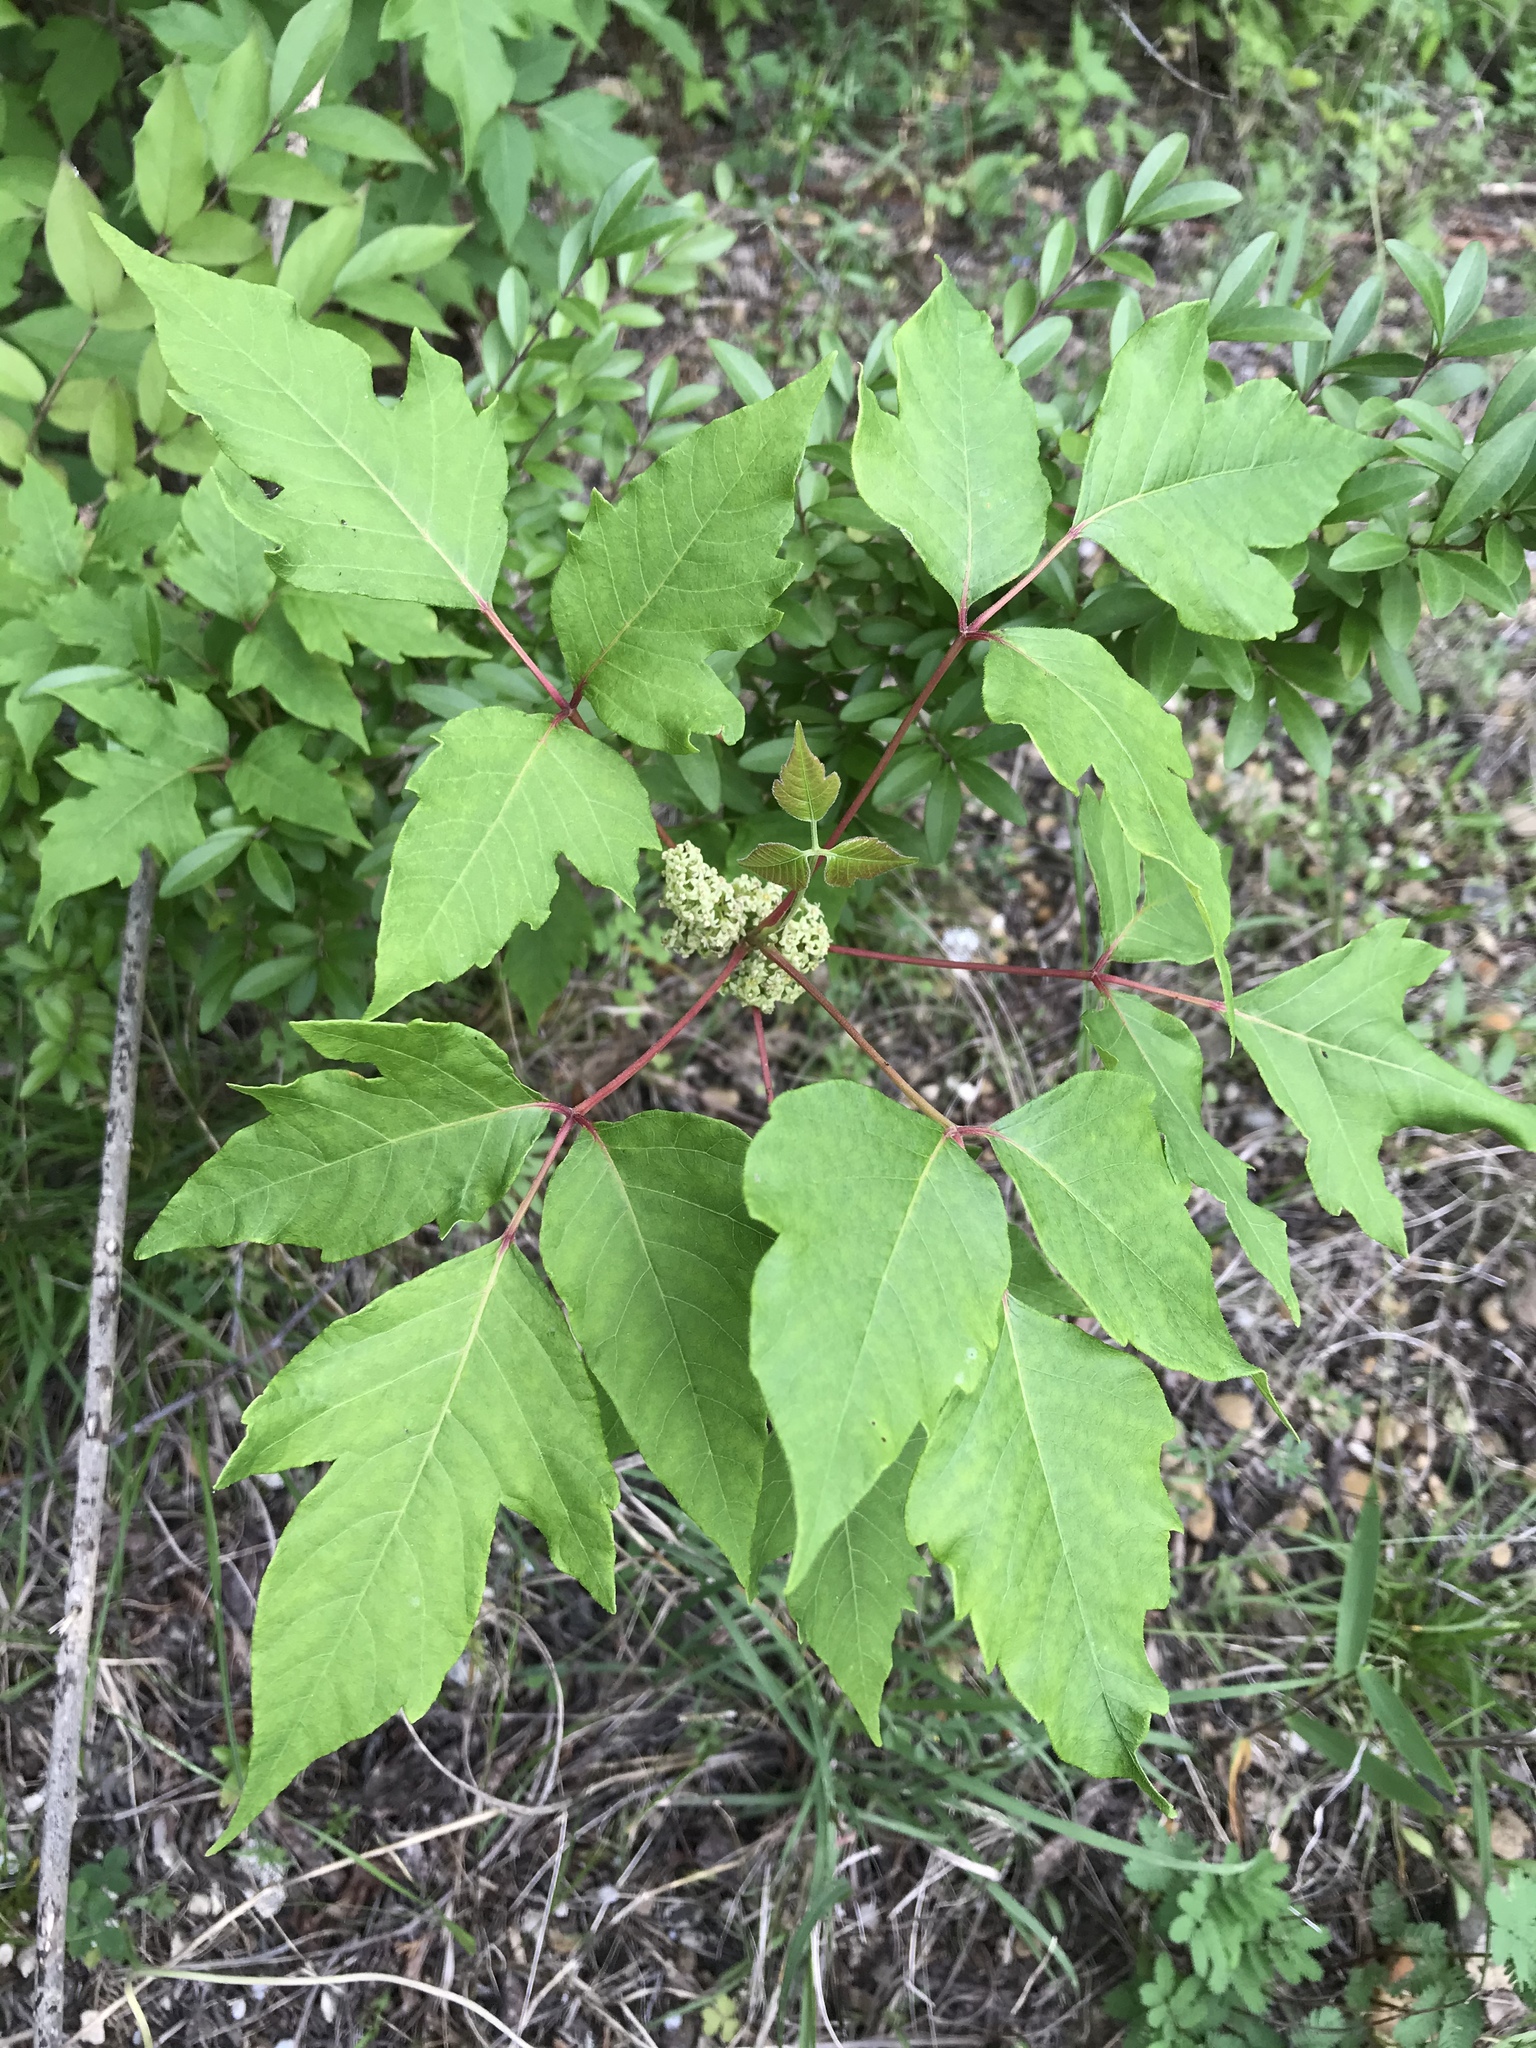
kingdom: Plantae
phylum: Tracheophyta
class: Magnoliopsida
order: Sapindales
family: Anacardiaceae
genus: Toxicodendron
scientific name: Toxicodendron radicans
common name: Poison ivy
